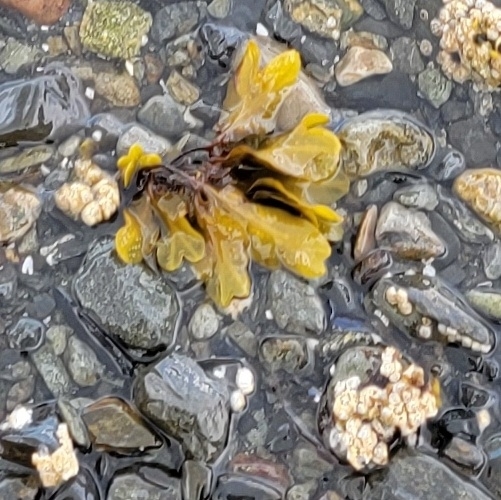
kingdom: Chromista
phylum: Ochrophyta
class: Phaeophyceae
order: Fucales
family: Fucaceae
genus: Fucus
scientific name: Fucus distichus
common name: Rockweed
